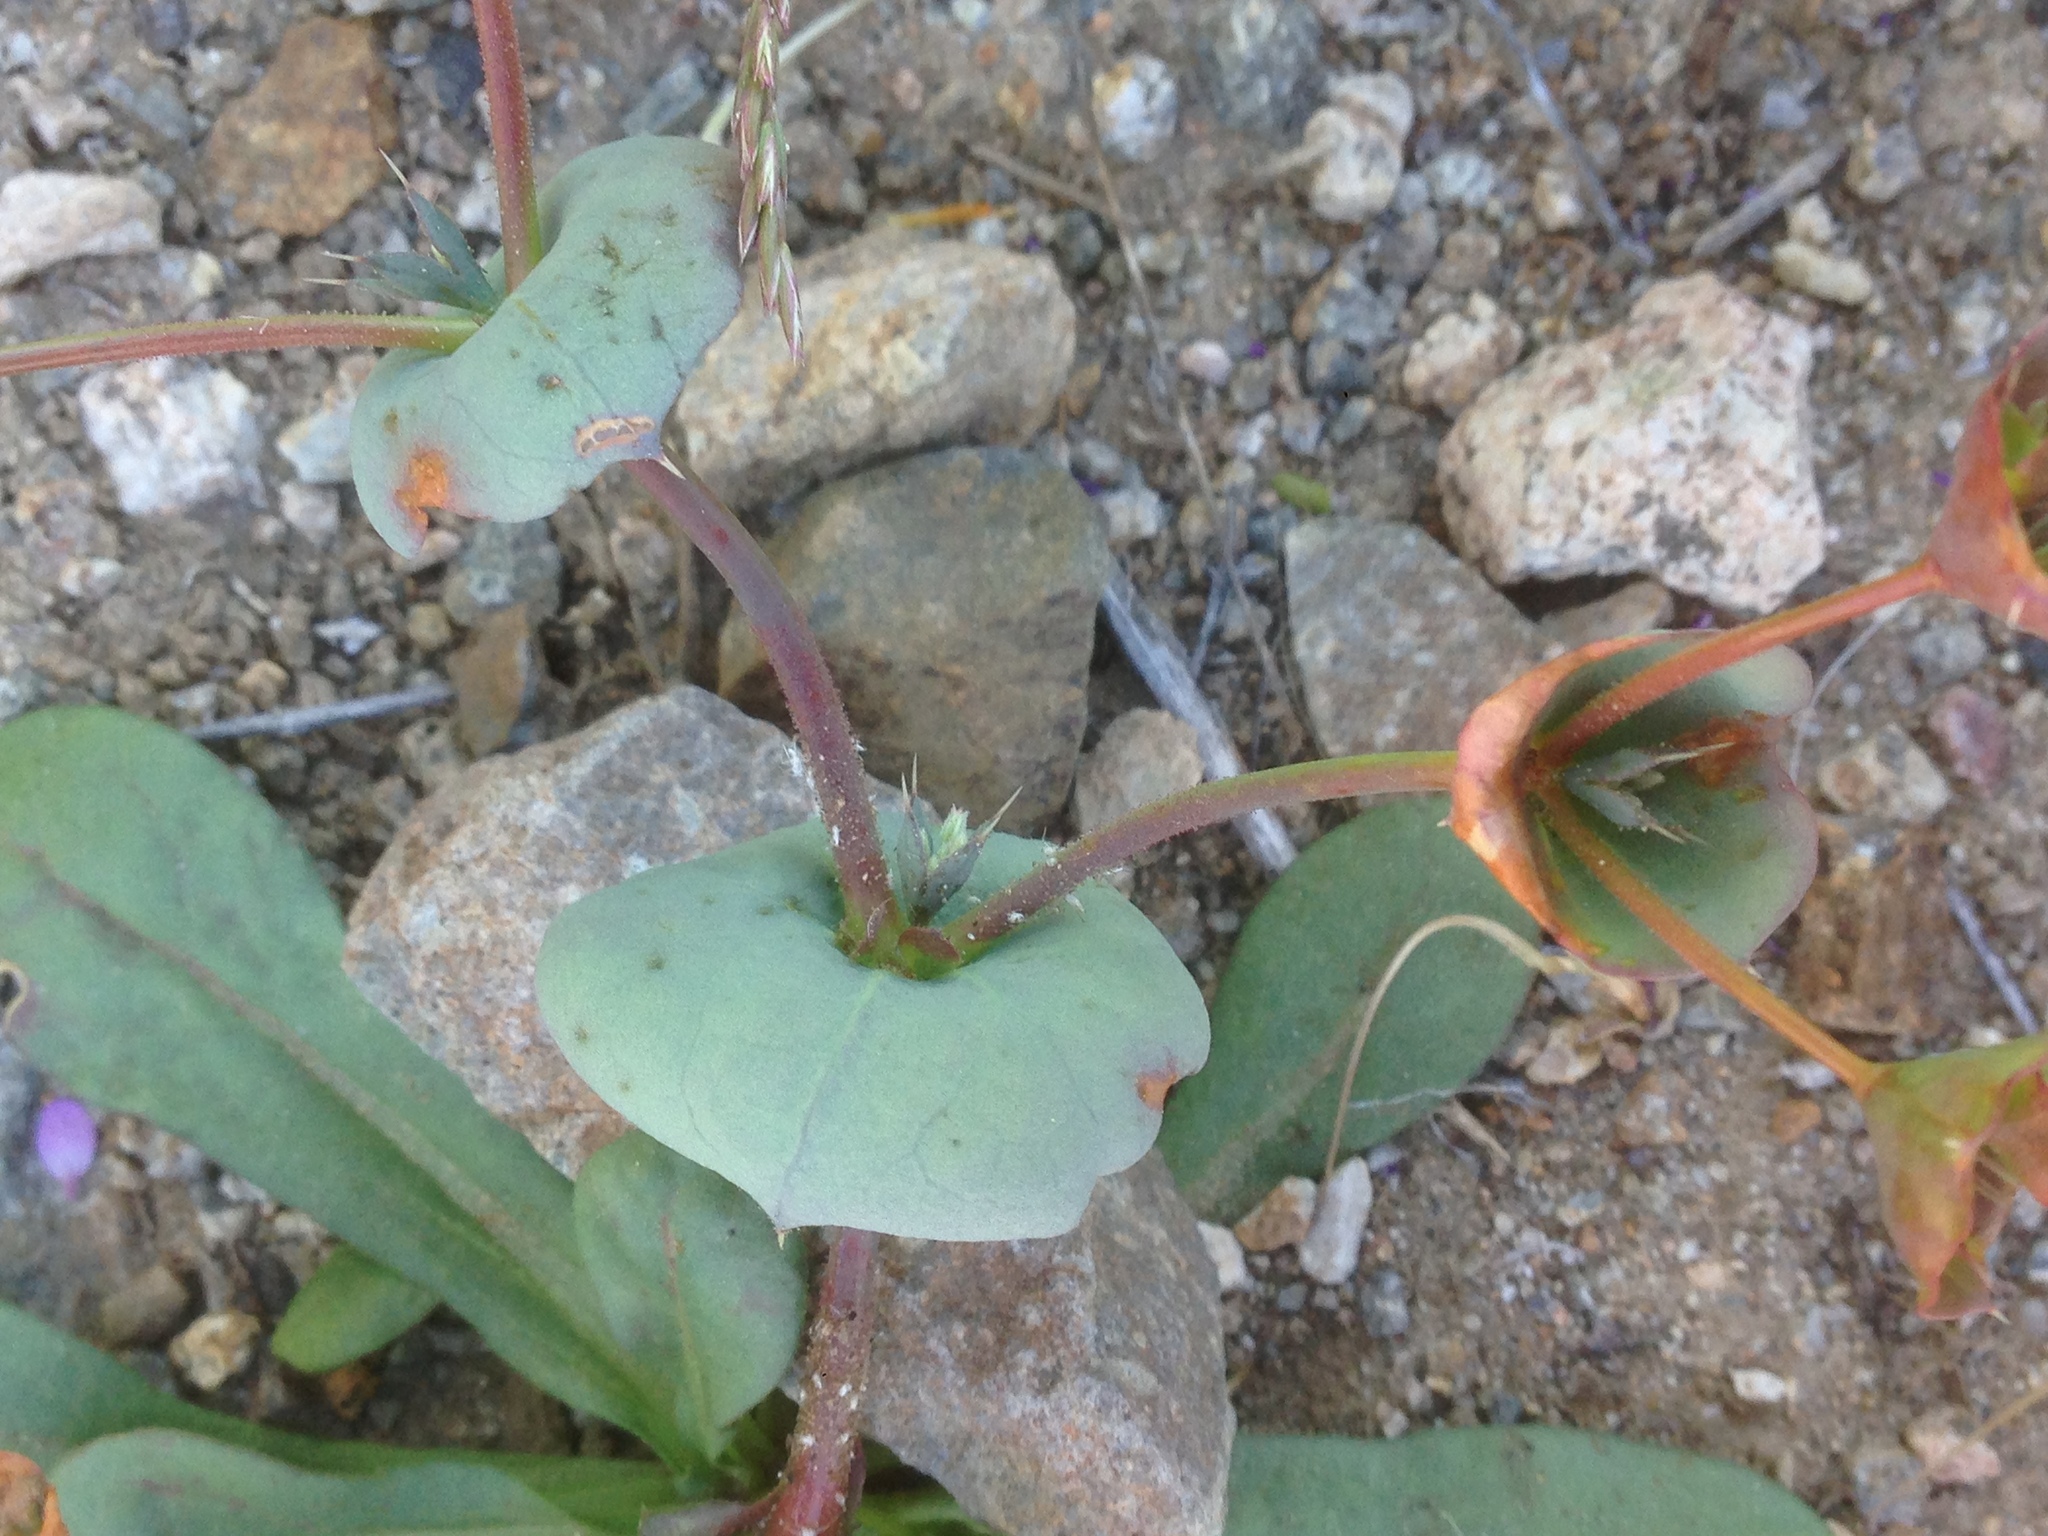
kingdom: Plantae
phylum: Tracheophyta
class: Magnoliopsida
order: Caryophyllales
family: Polygonaceae
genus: Oxytheca
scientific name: Oxytheca perfoliata
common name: Round-leaf puncturebract
